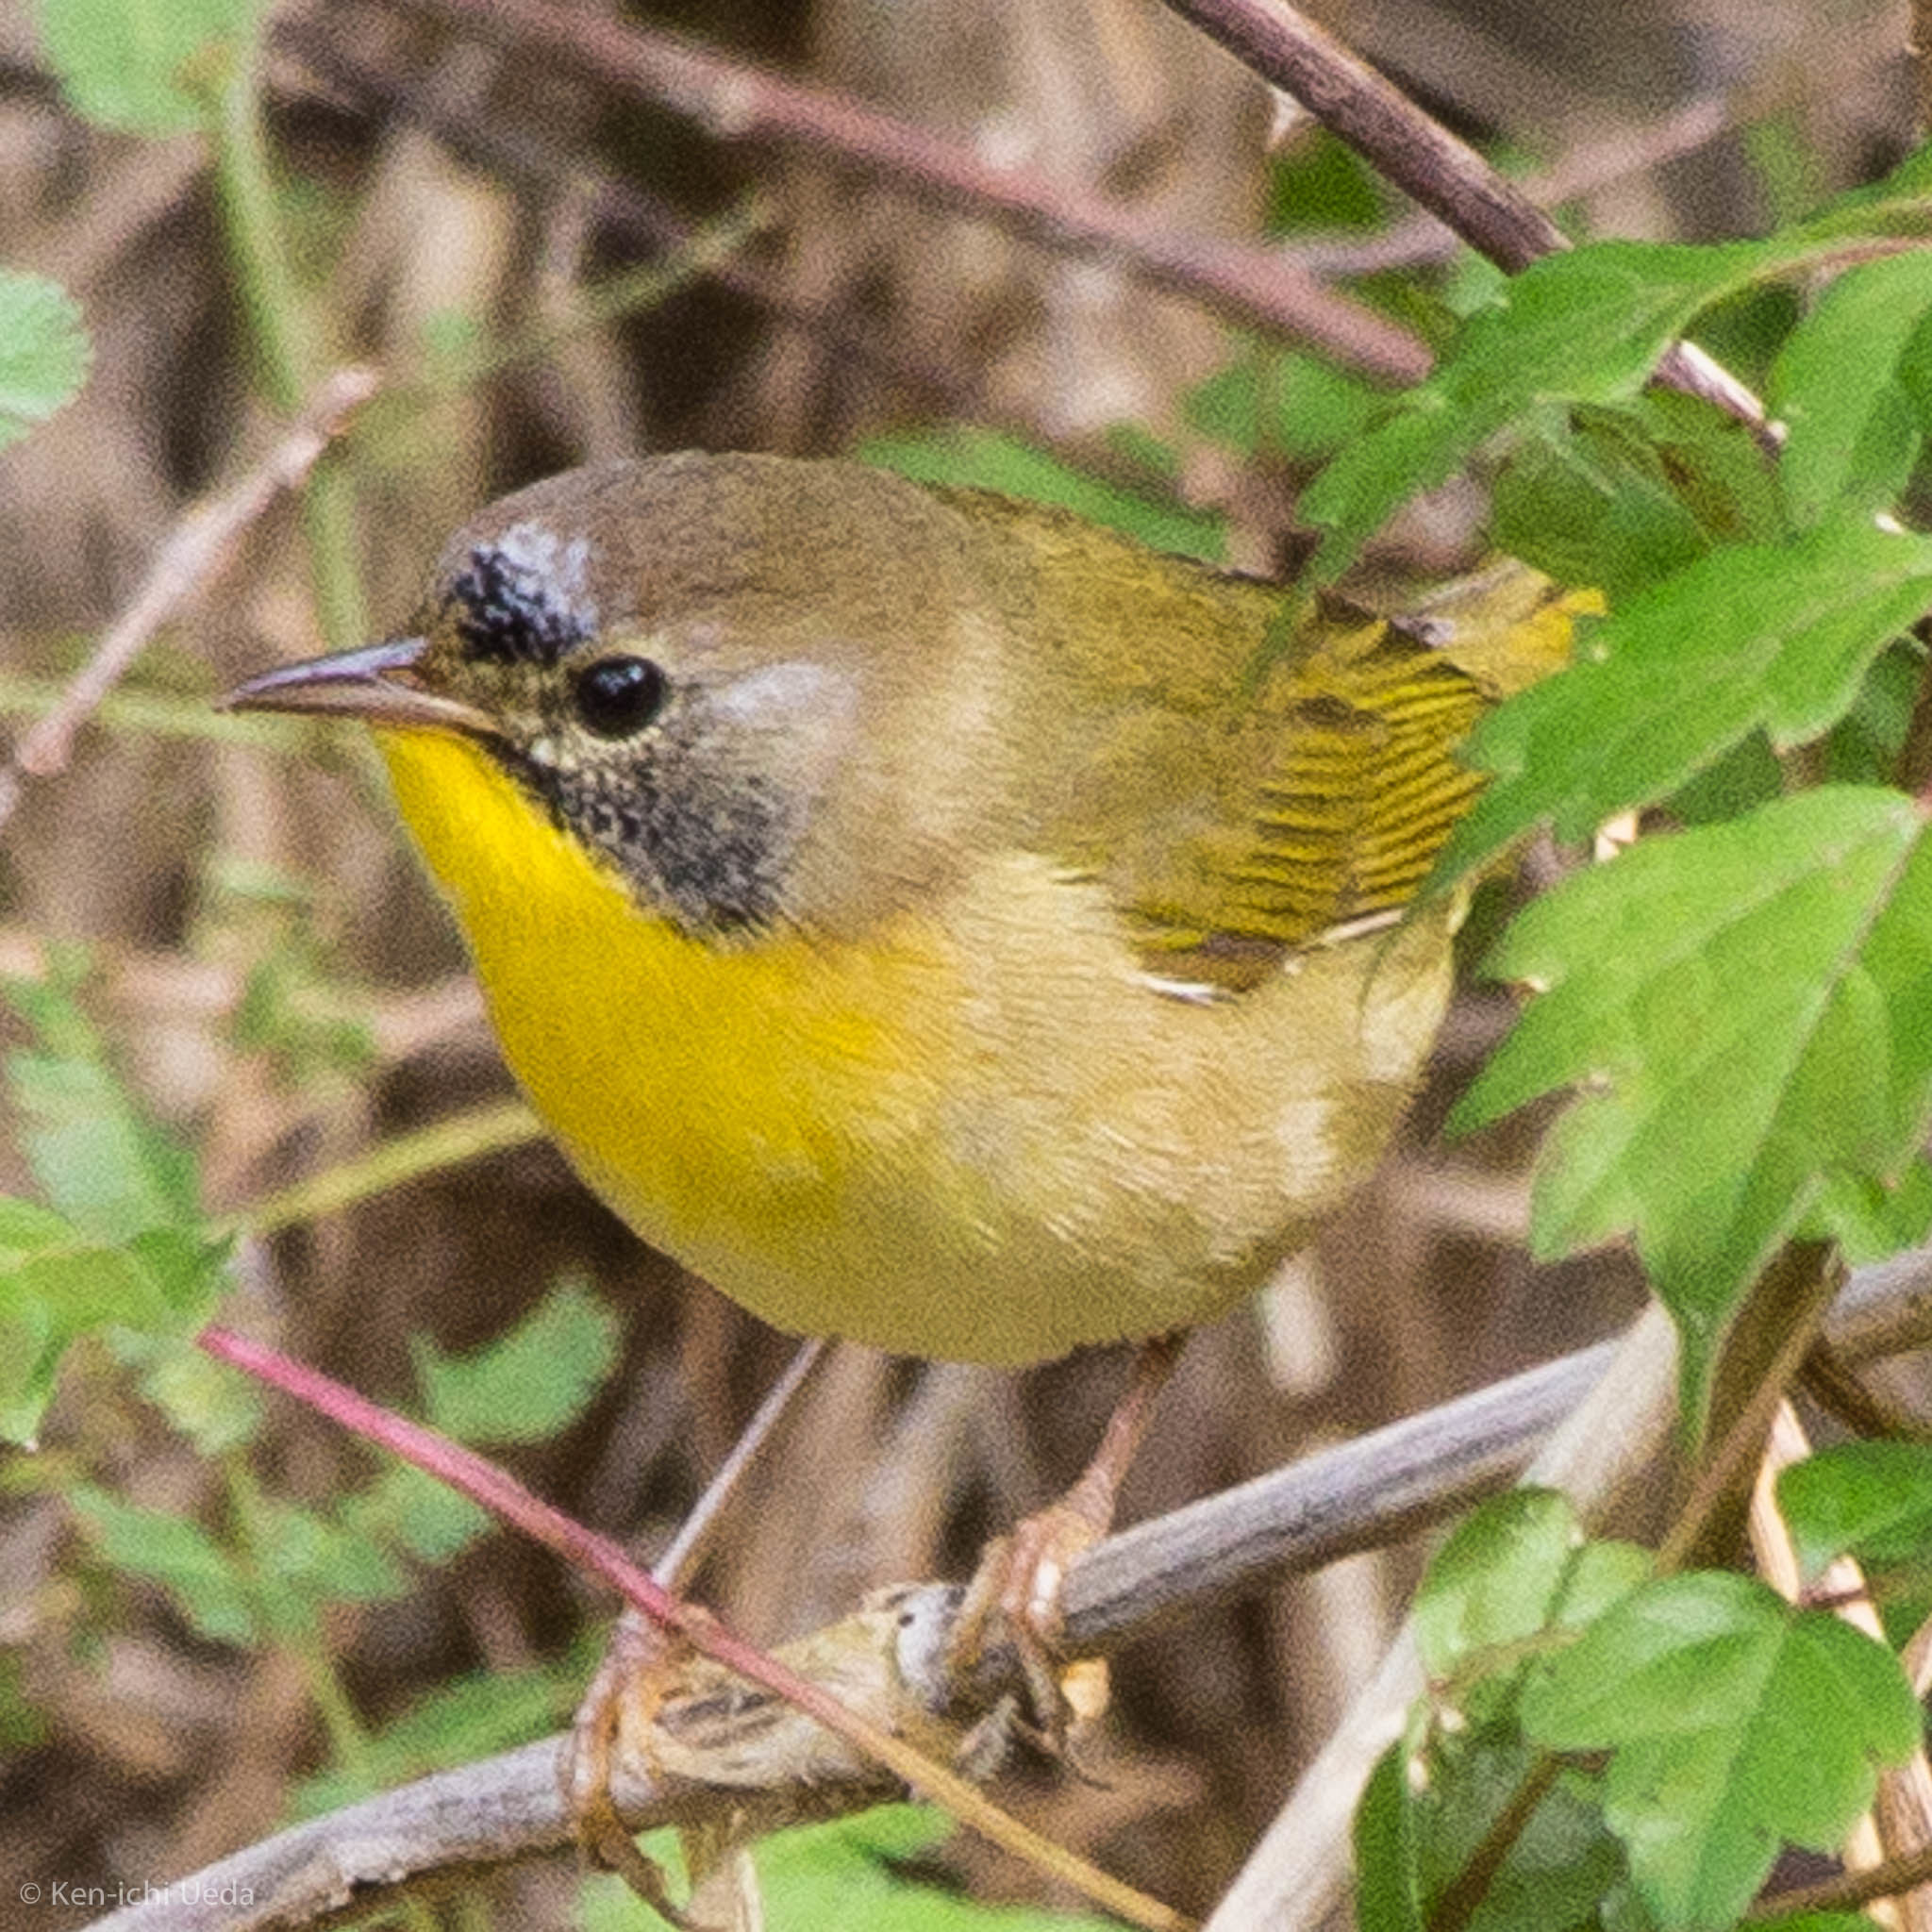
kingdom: Animalia
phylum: Chordata
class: Aves
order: Passeriformes
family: Parulidae
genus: Geothlypis
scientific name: Geothlypis trichas
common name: Common yellowthroat
